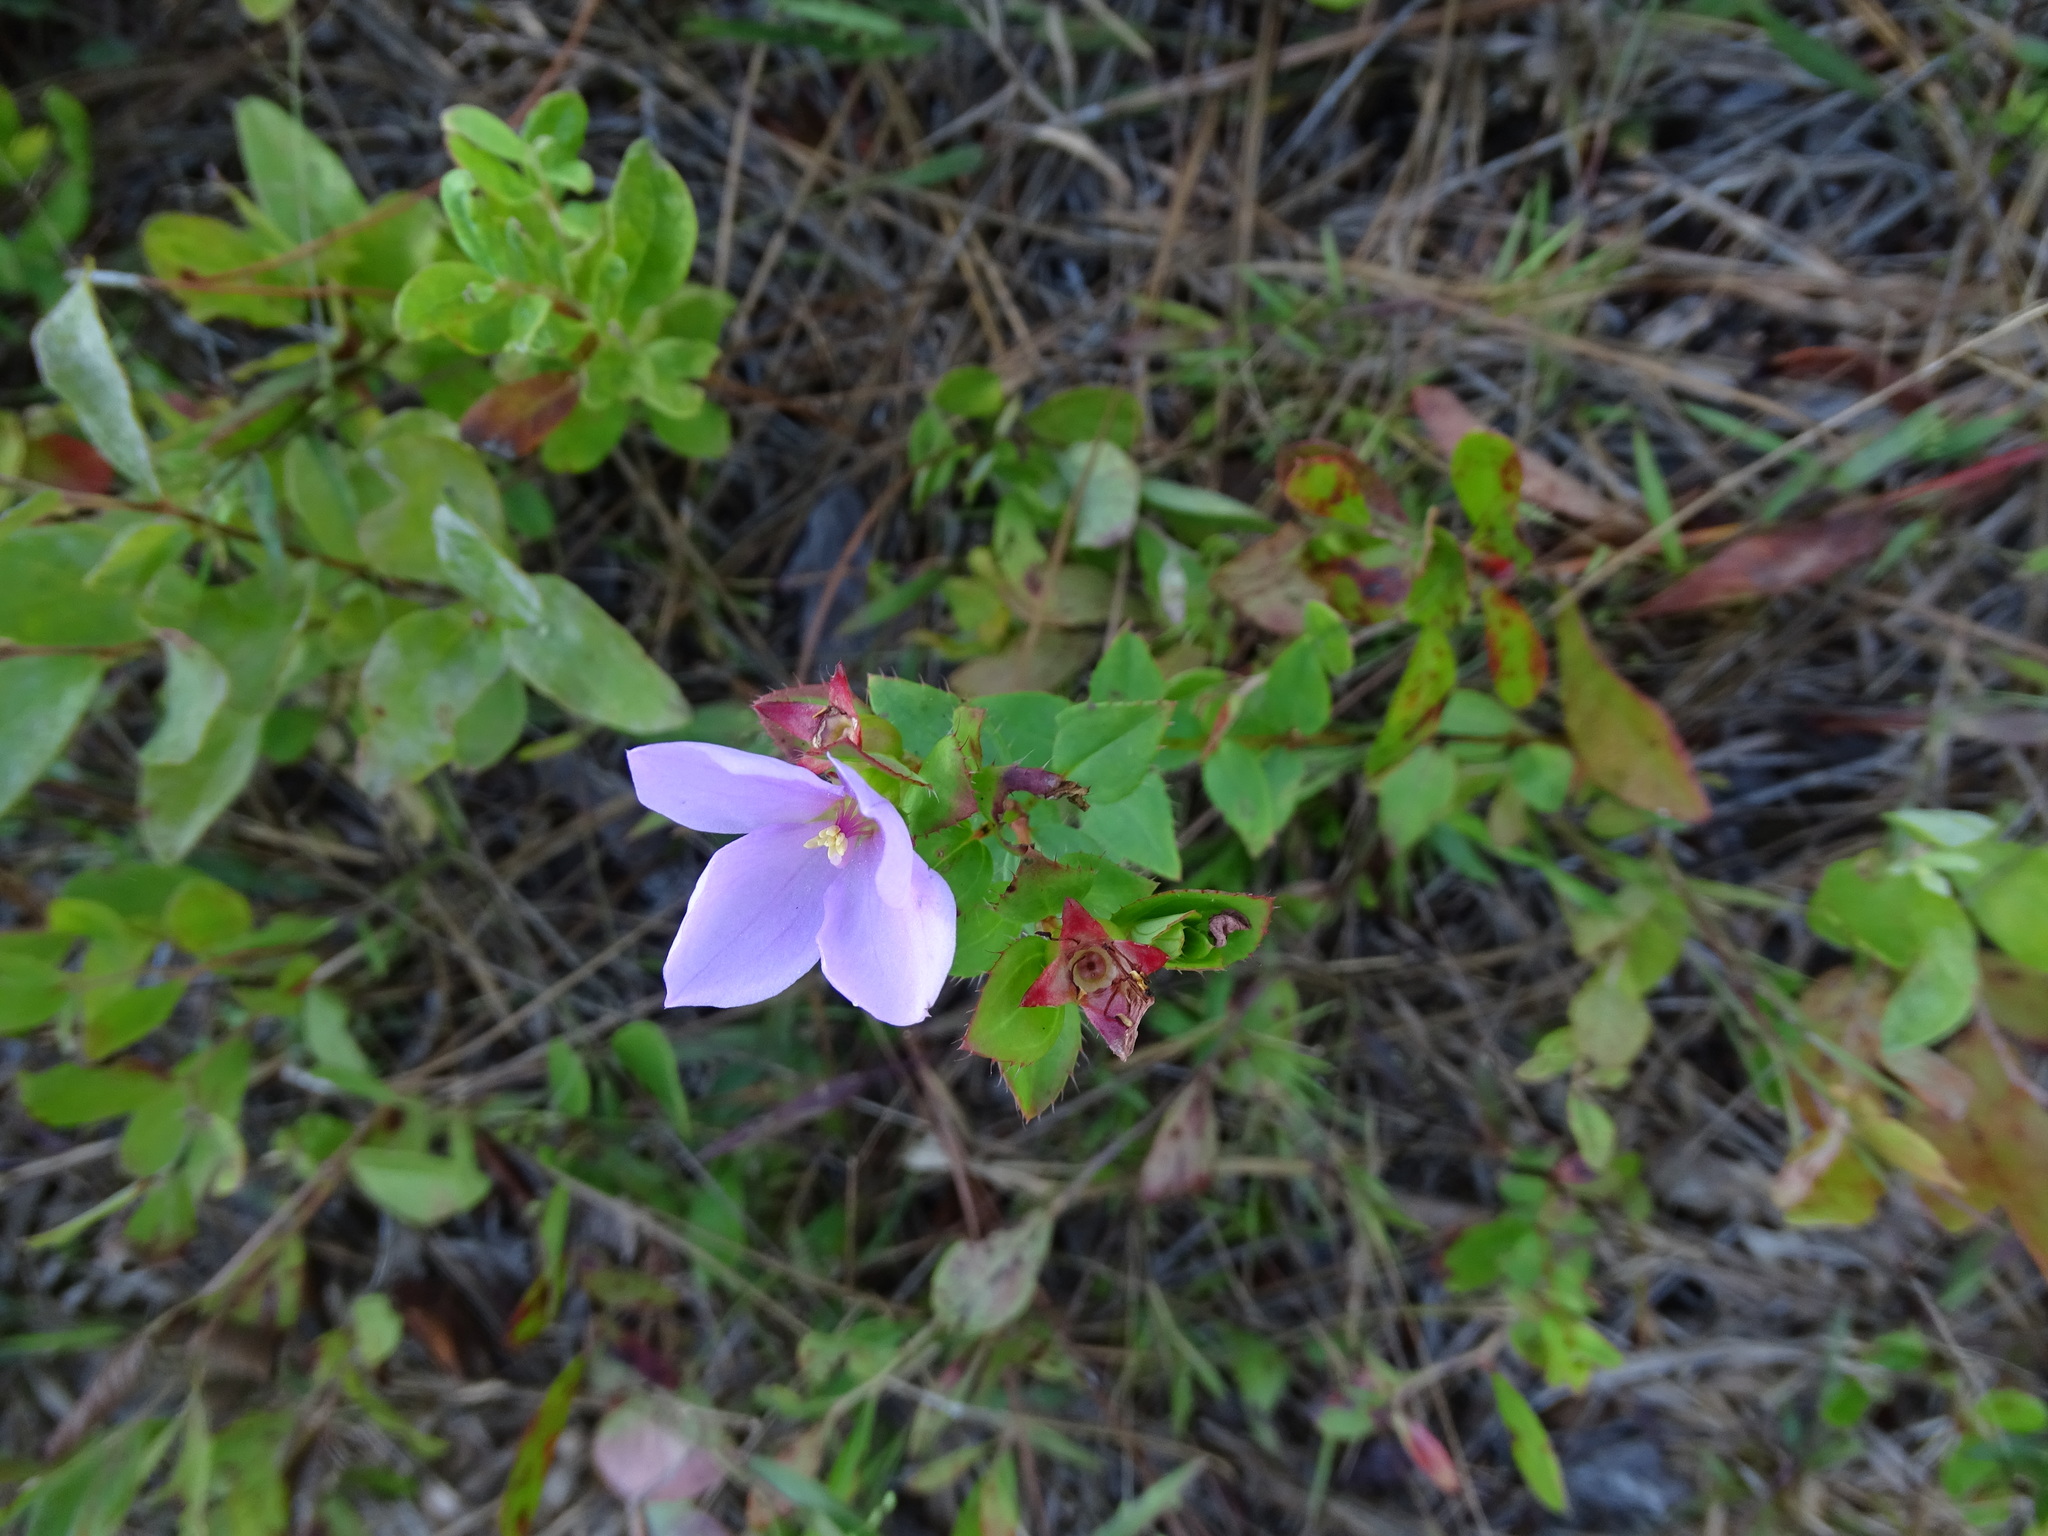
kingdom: Plantae
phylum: Tracheophyta
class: Magnoliopsida
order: Myrtales
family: Melastomataceae
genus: Rhexia
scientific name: Rhexia petiolata
